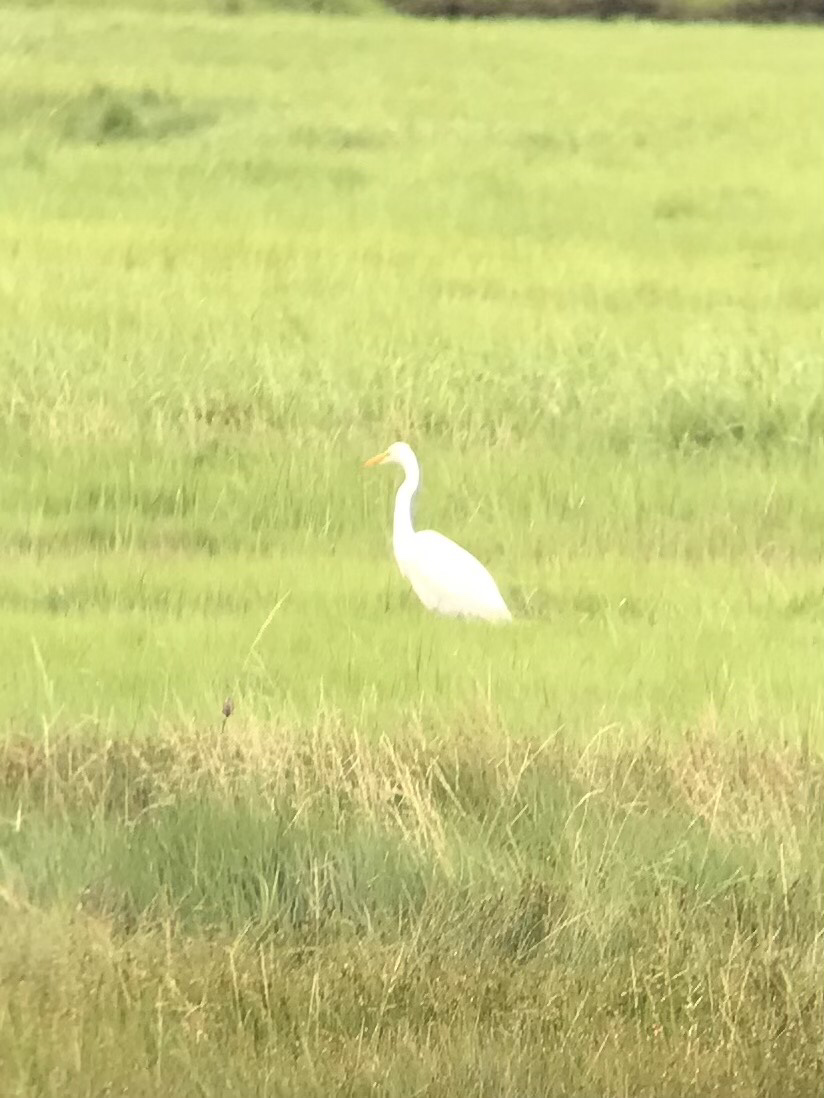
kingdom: Animalia
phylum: Chordata
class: Aves
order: Pelecaniformes
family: Ardeidae
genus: Ardea
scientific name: Ardea alba
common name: Great egret
